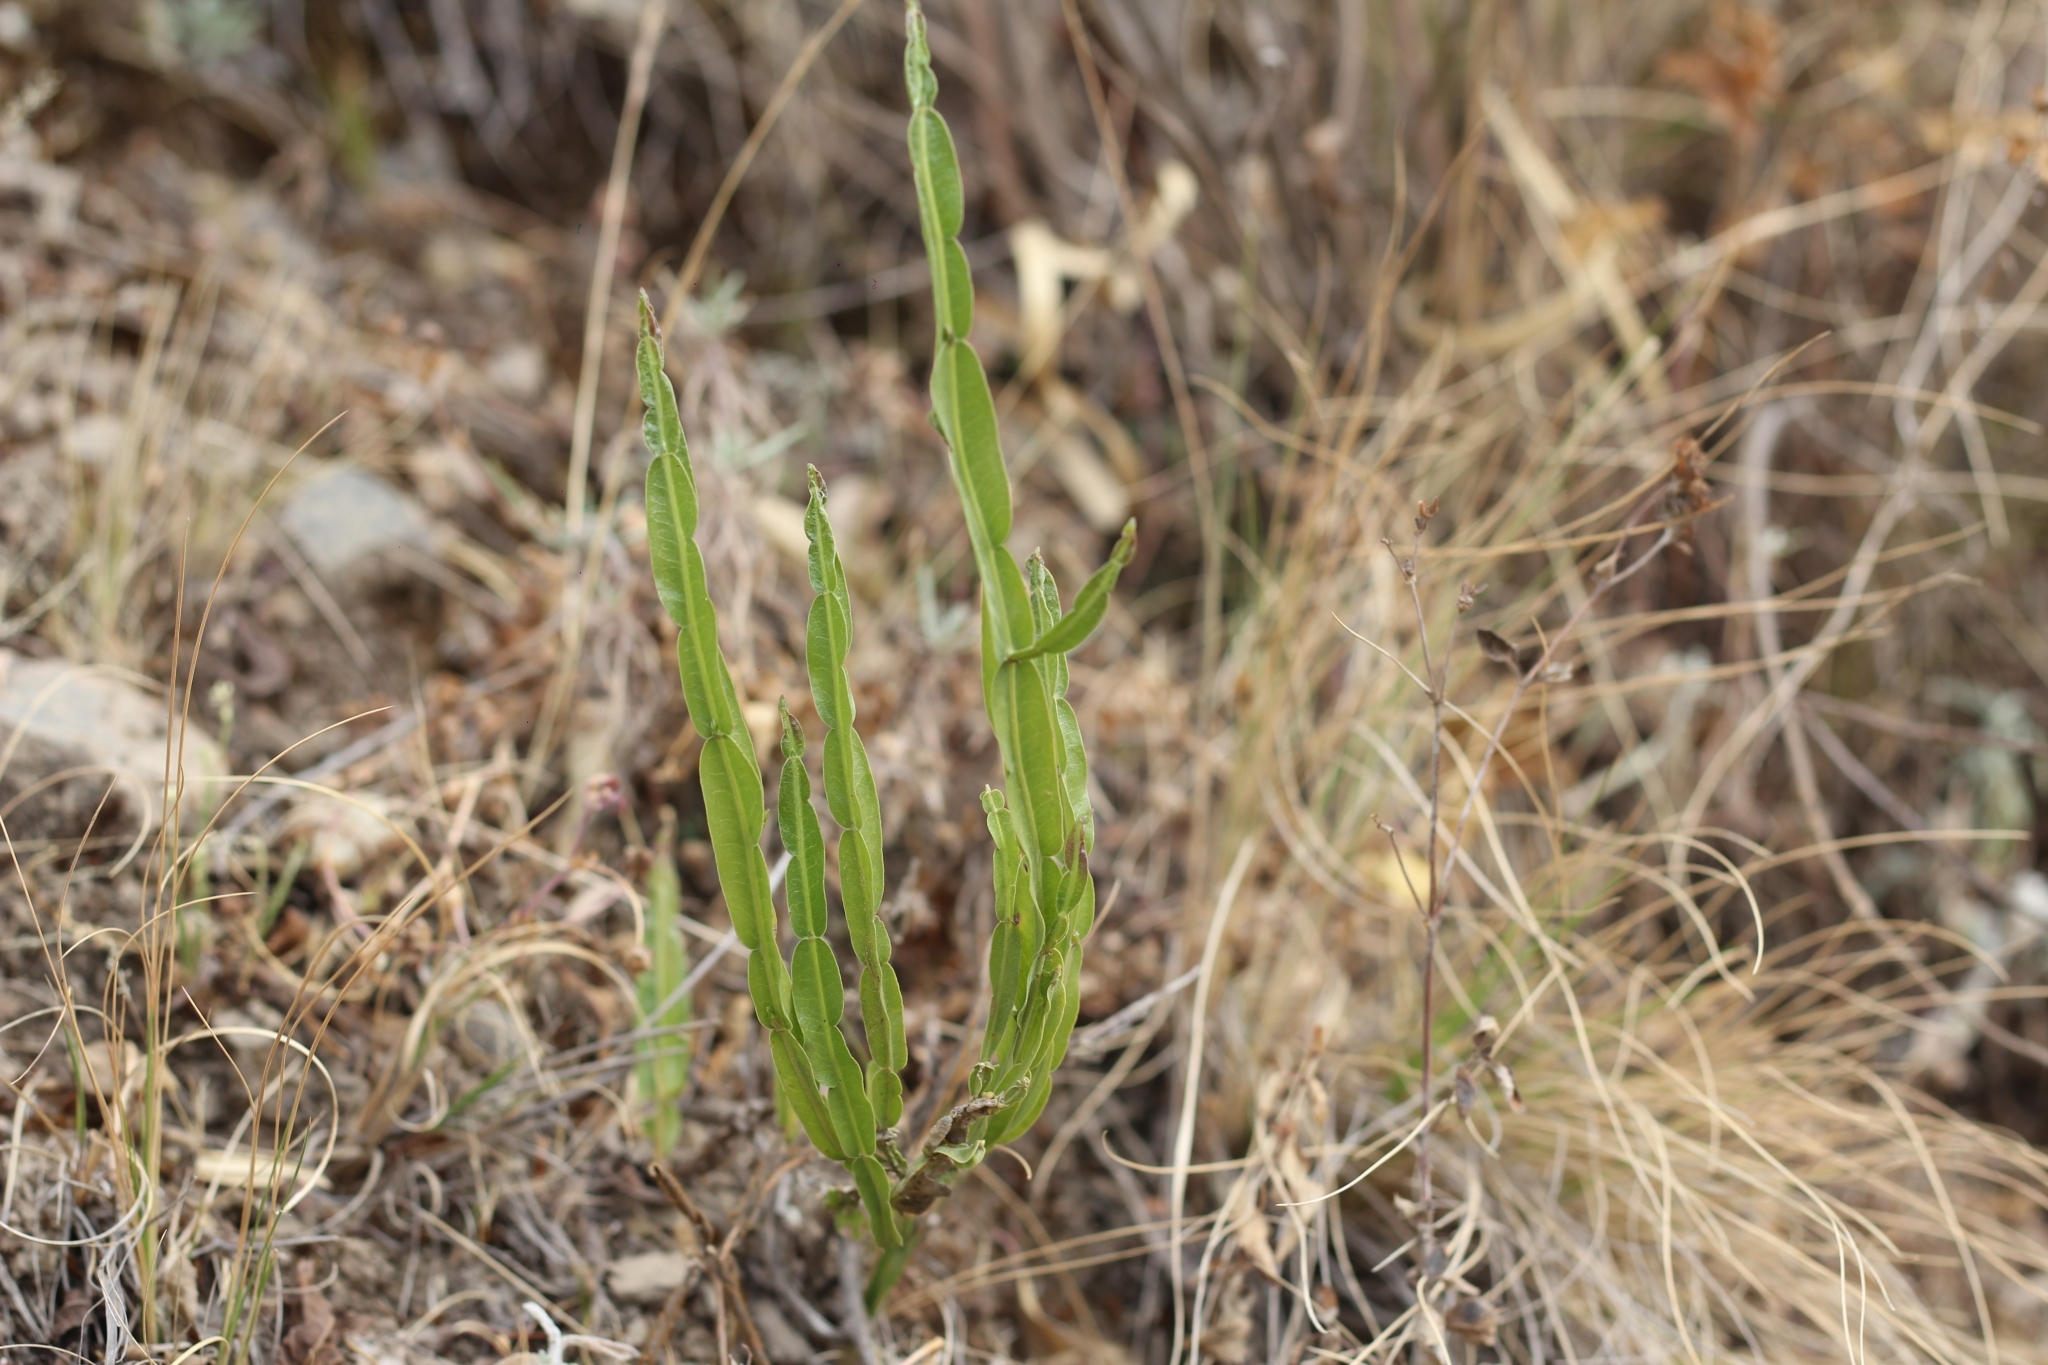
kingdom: Plantae
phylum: Tracheophyta
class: Magnoliopsida
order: Asterales
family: Asteraceae
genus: Baccharis
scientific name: Baccharis trimera
